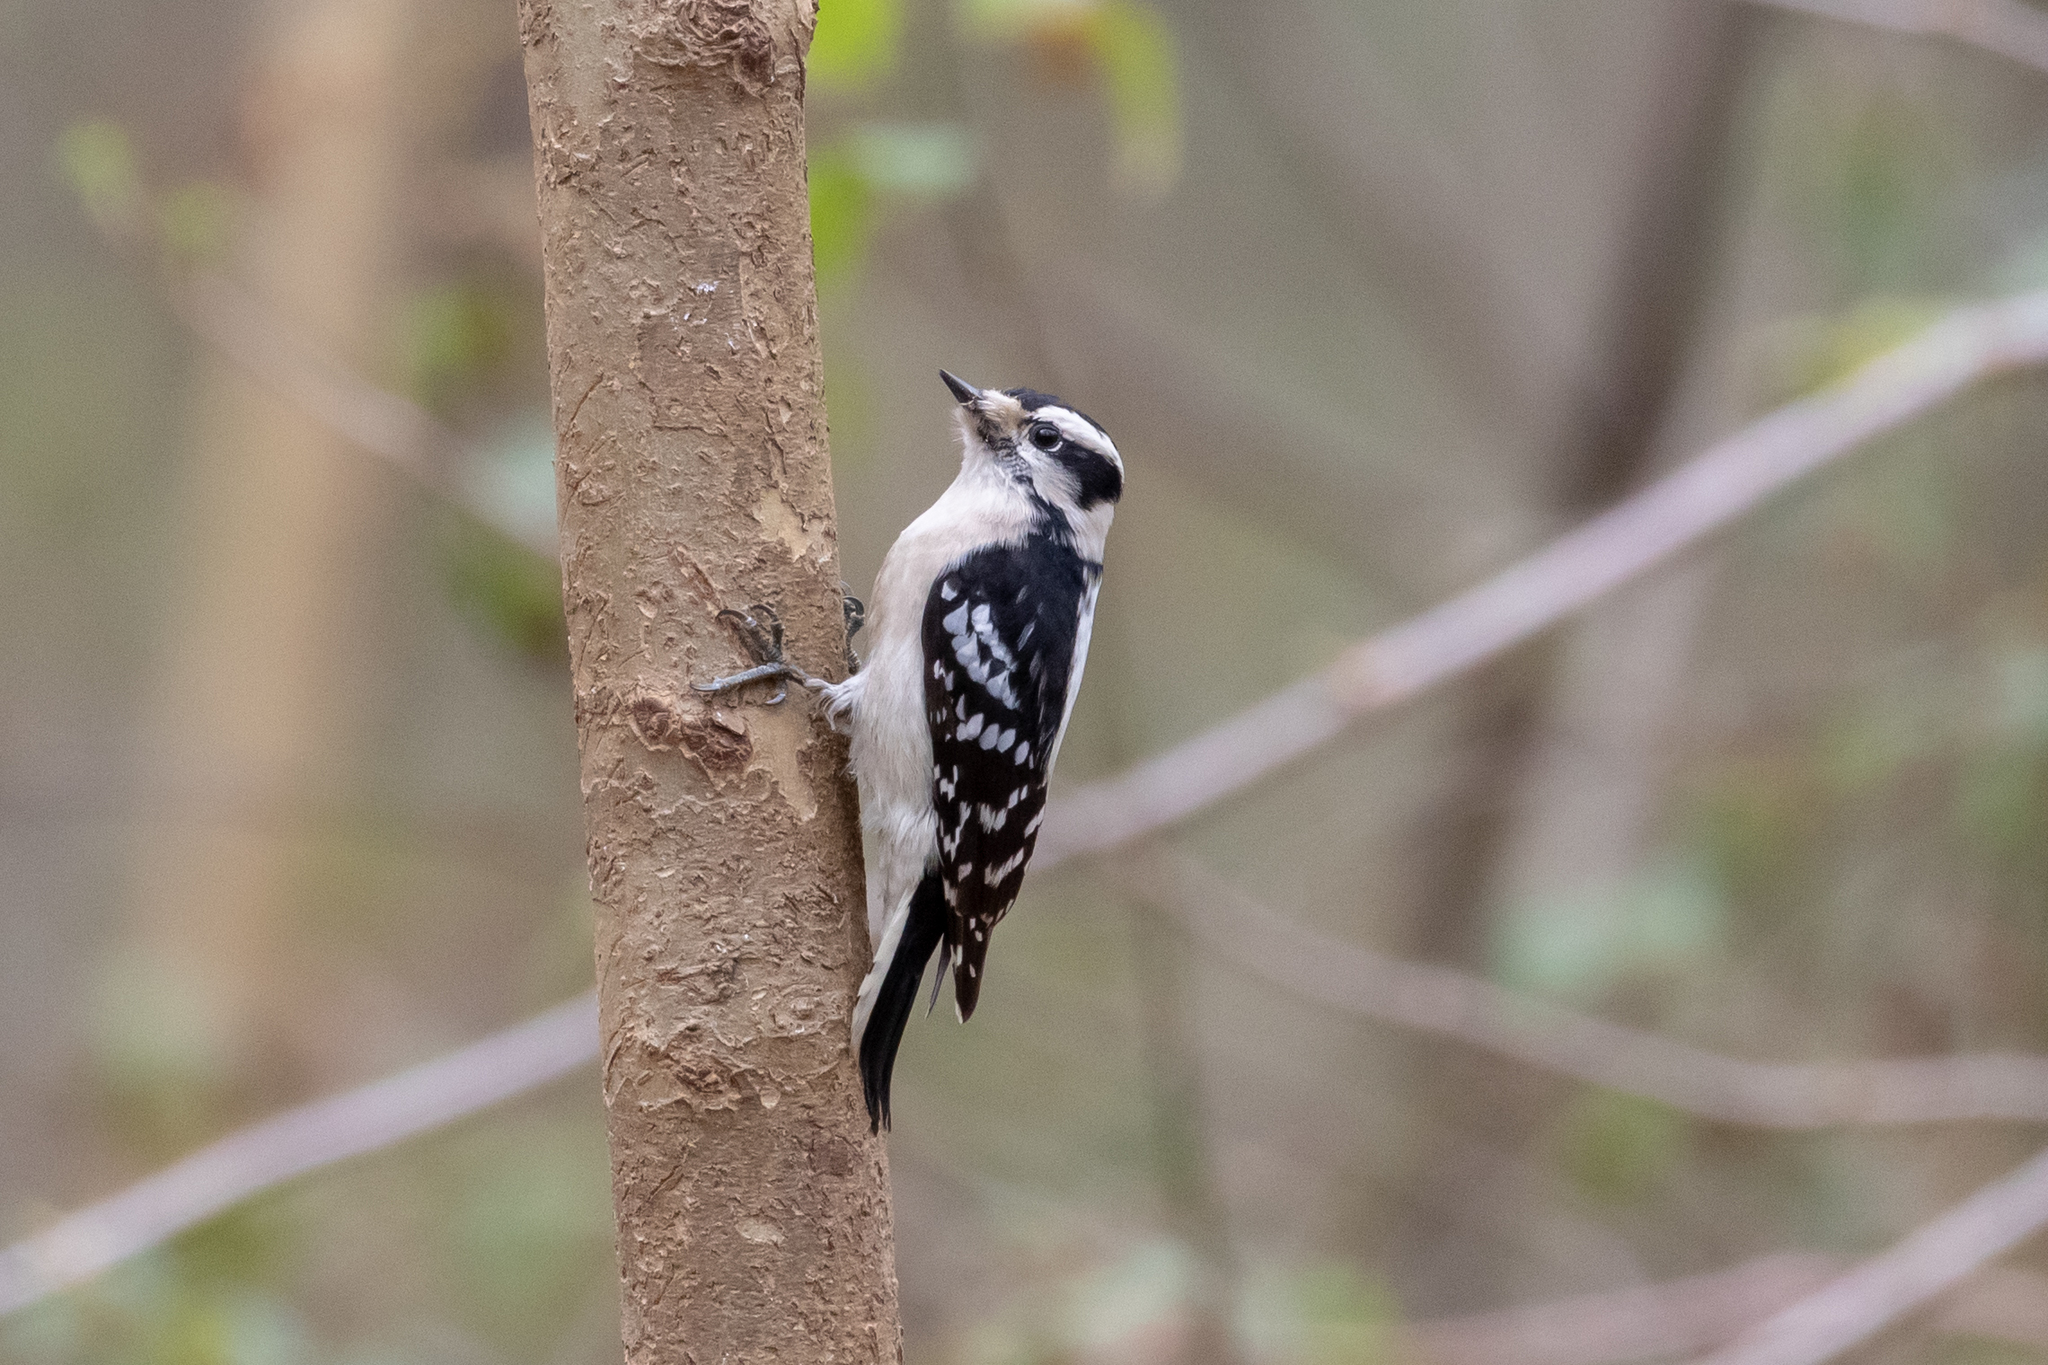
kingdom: Animalia
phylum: Chordata
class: Aves
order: Piciformes
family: Picidae
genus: Dryobates
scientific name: Dryobates pubescens
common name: Downy woodpecker
